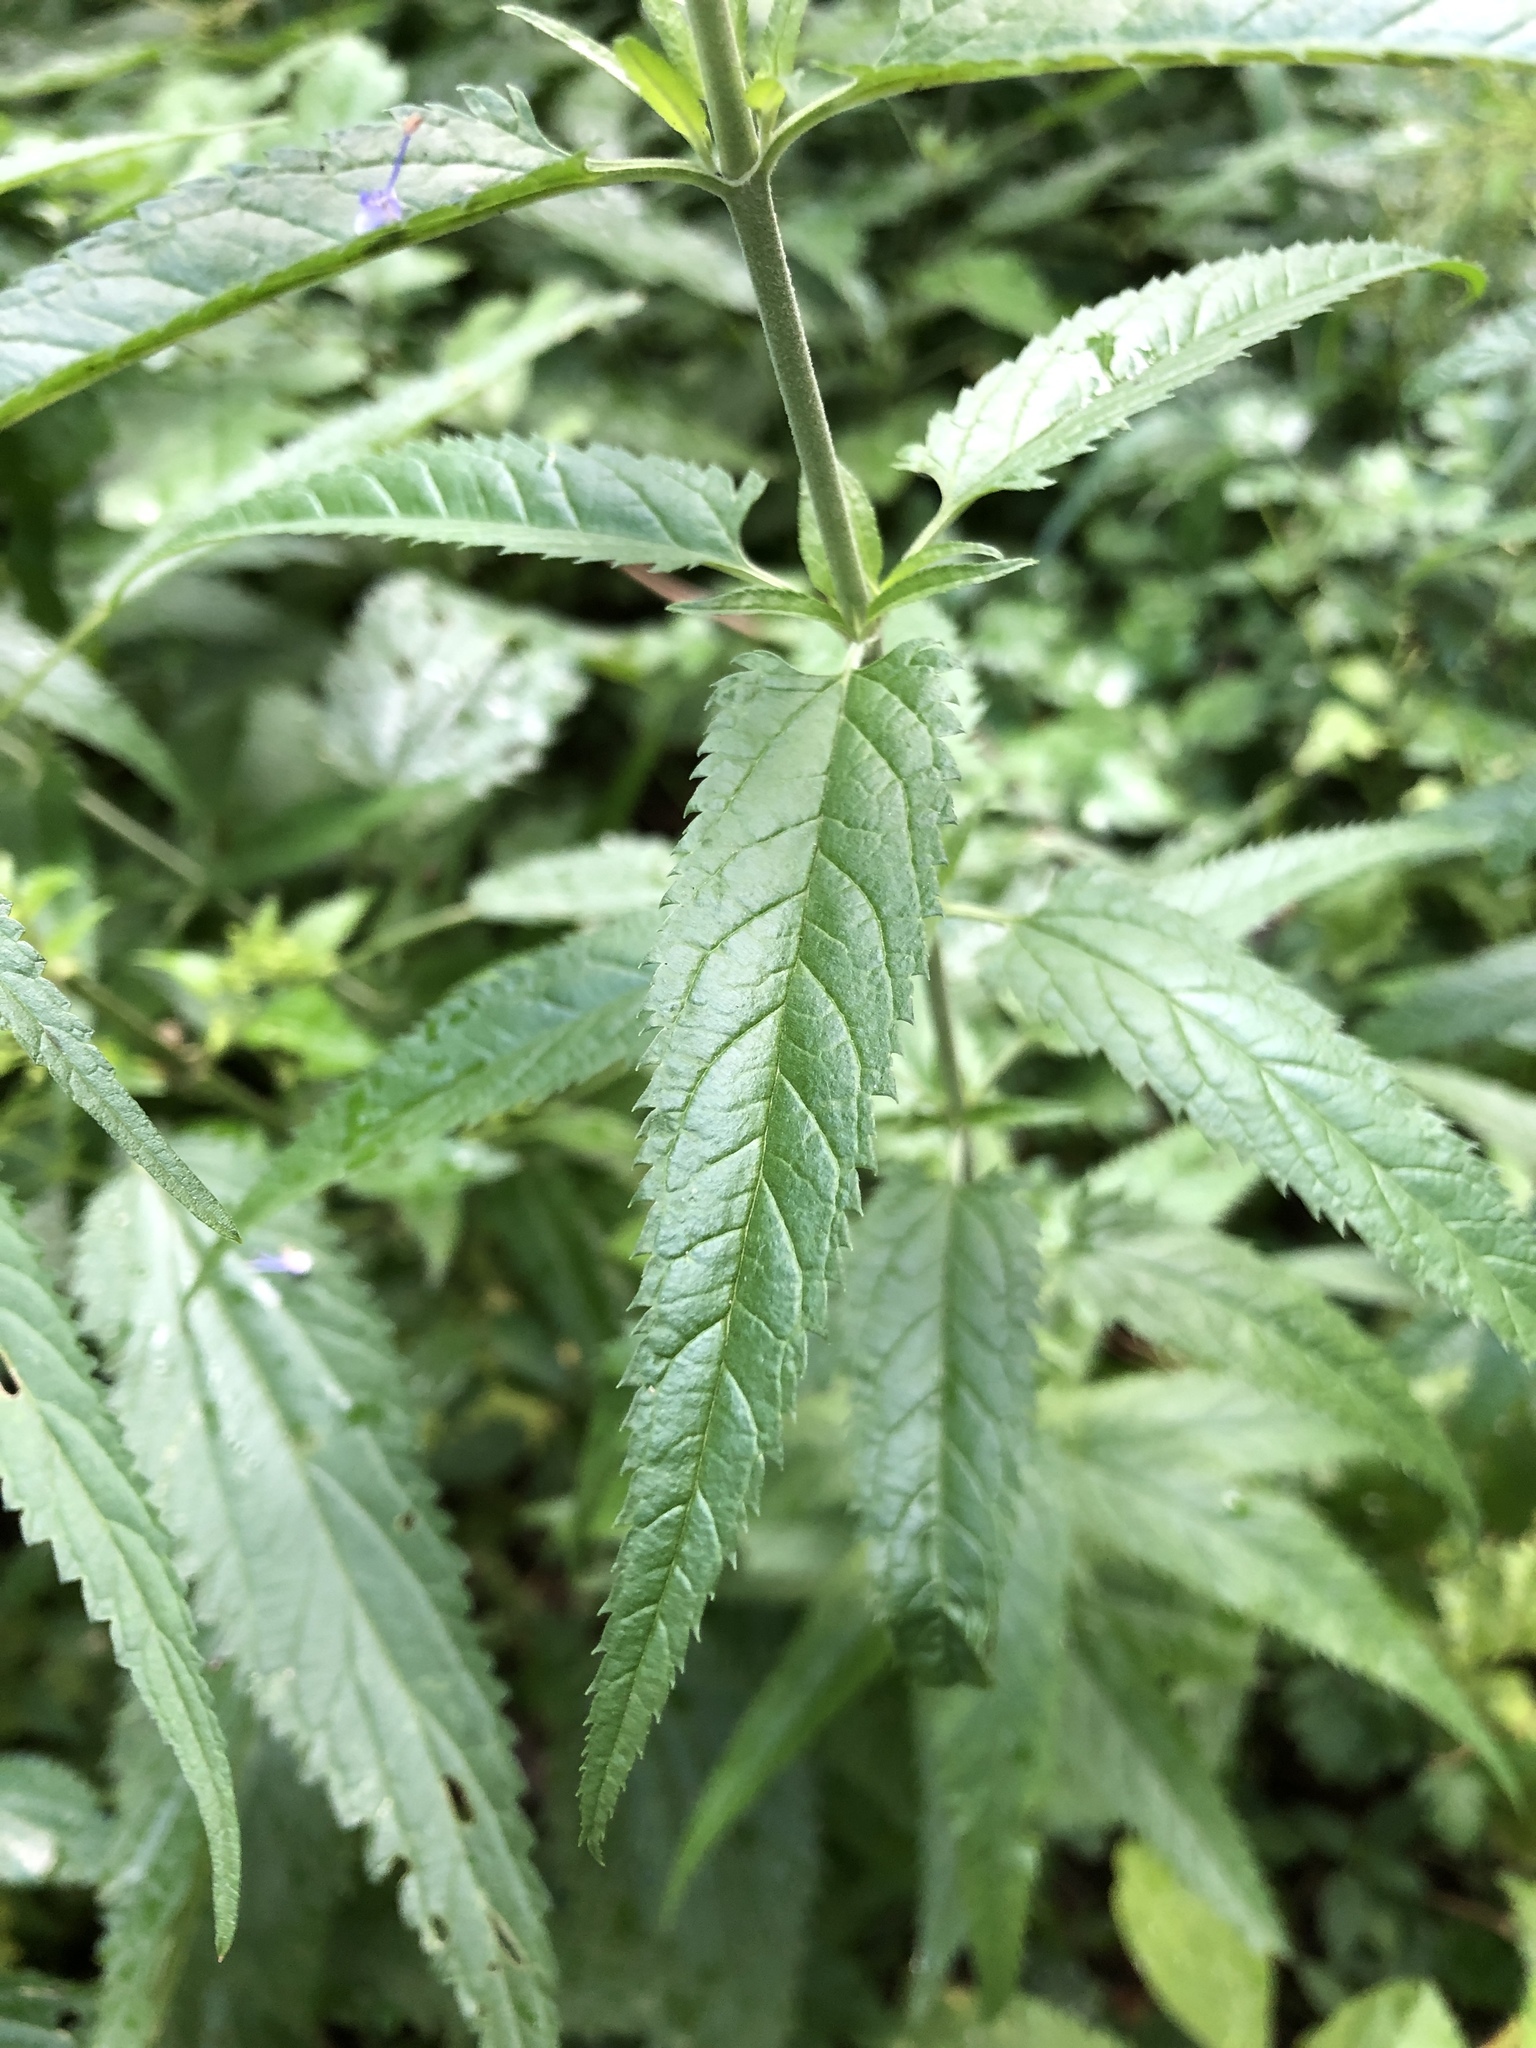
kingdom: Plantae
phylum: Tracheophyta
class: Magnoliopsida
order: Lamiales
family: Plantaginaceae
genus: Veronica
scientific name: Veronica longifolia
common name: Garden speedwell
